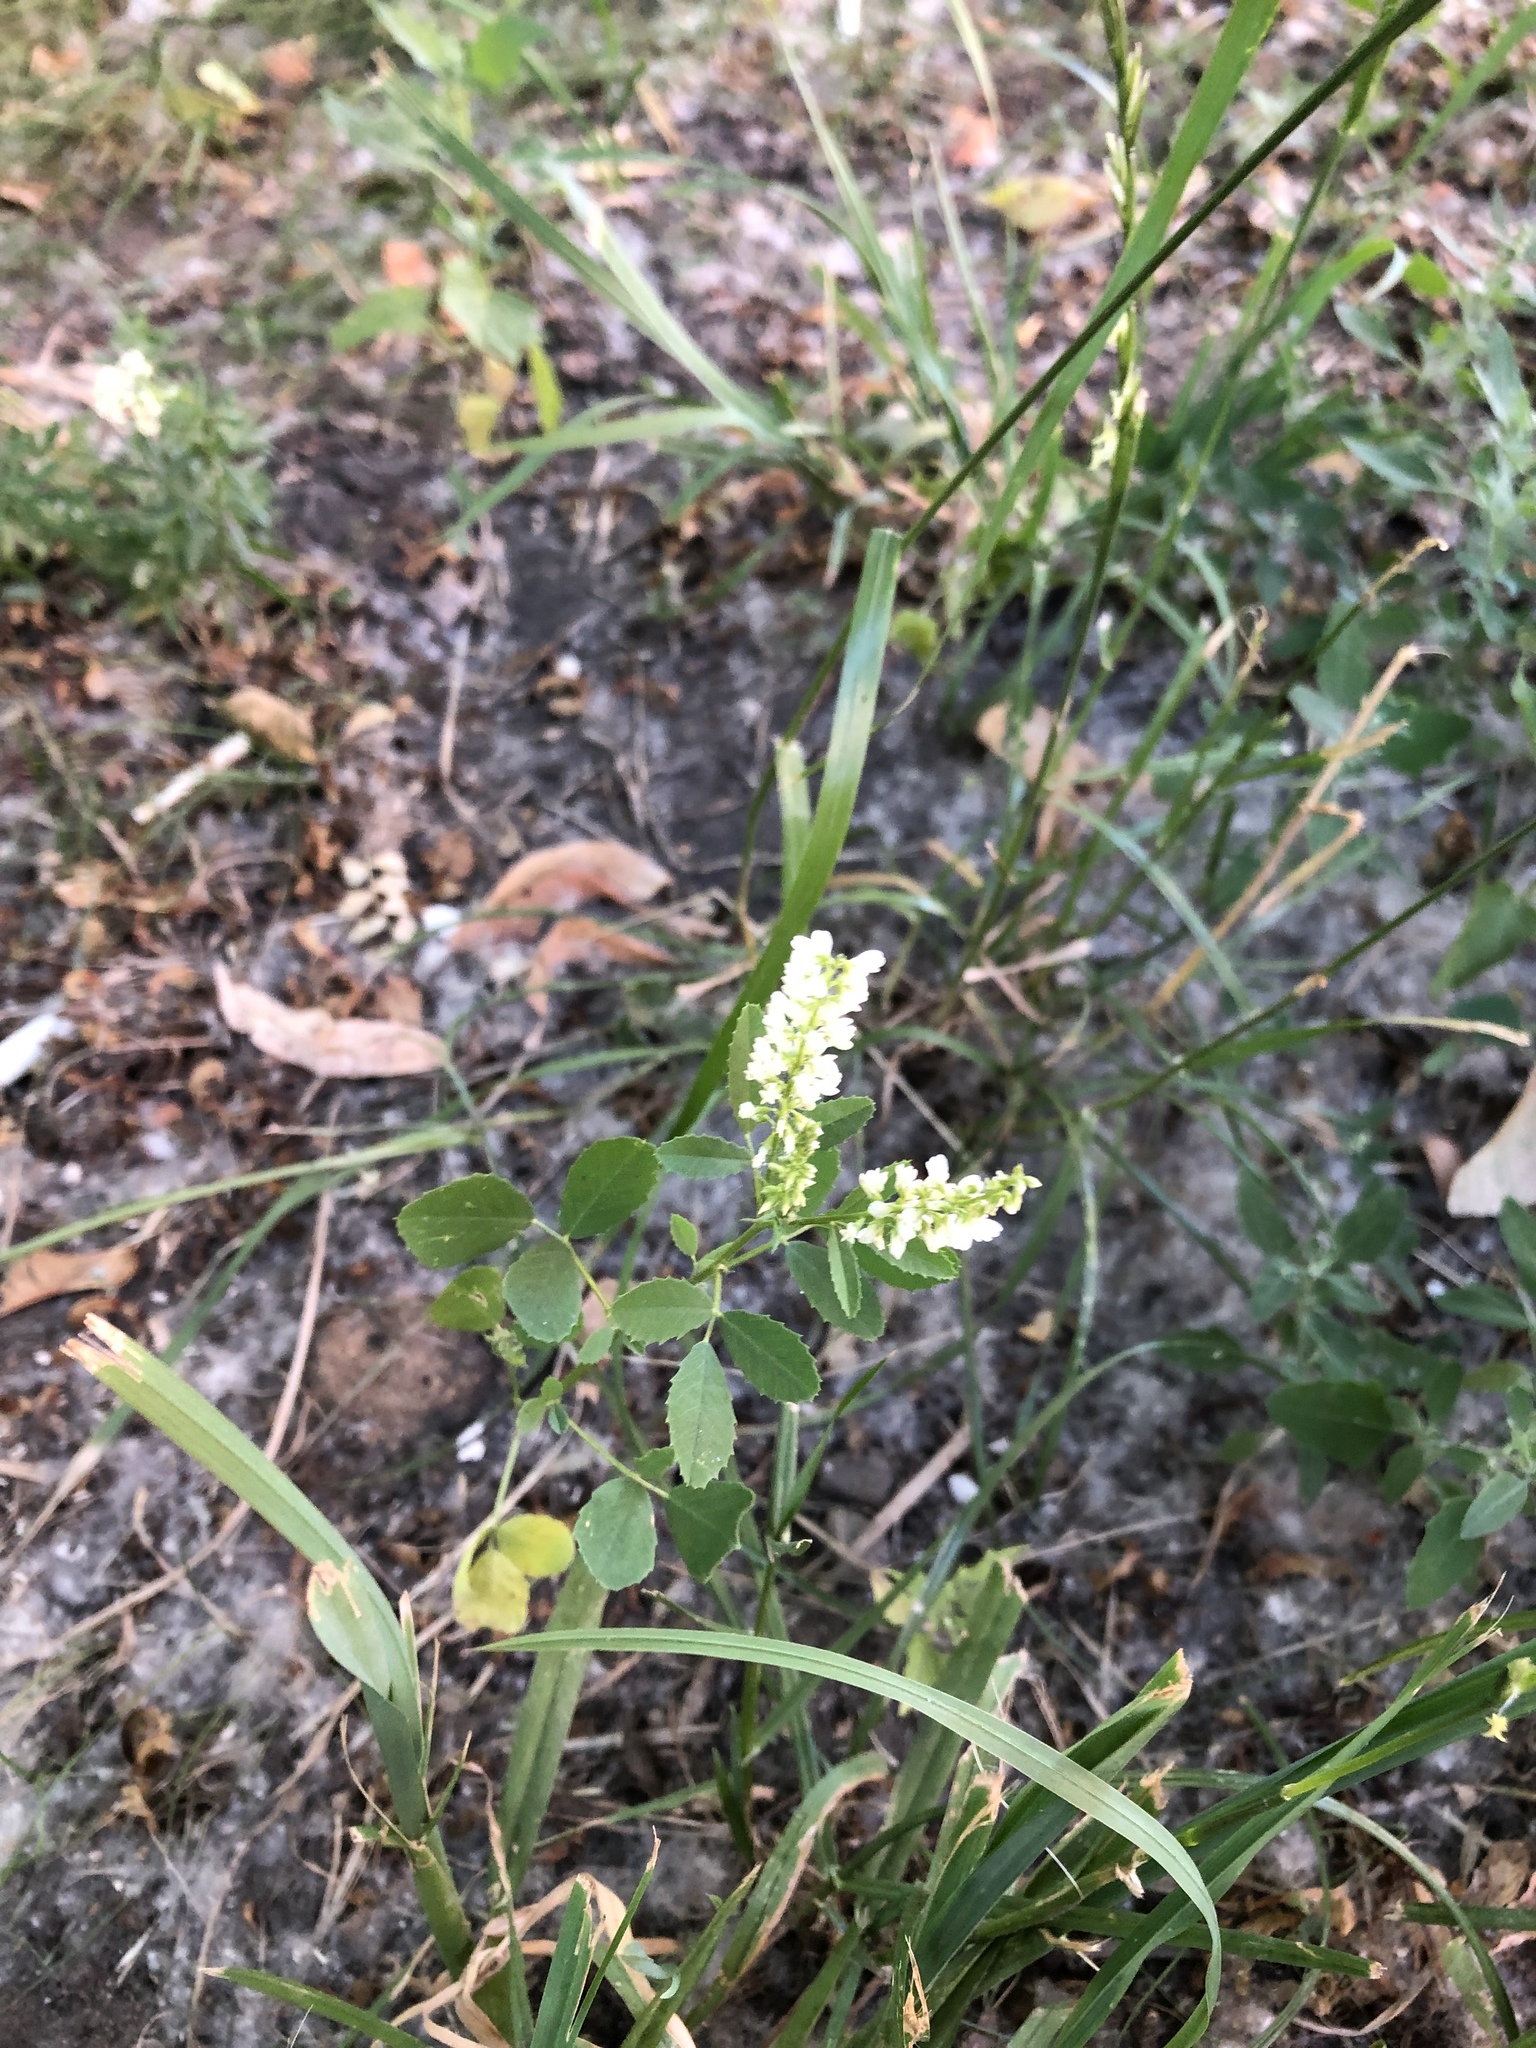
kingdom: Plantae
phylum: Tracheophyta
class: Magnoliopsida
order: Fabales
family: Fabaceae
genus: Melilotus
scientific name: Melilotus albus
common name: White melilot
